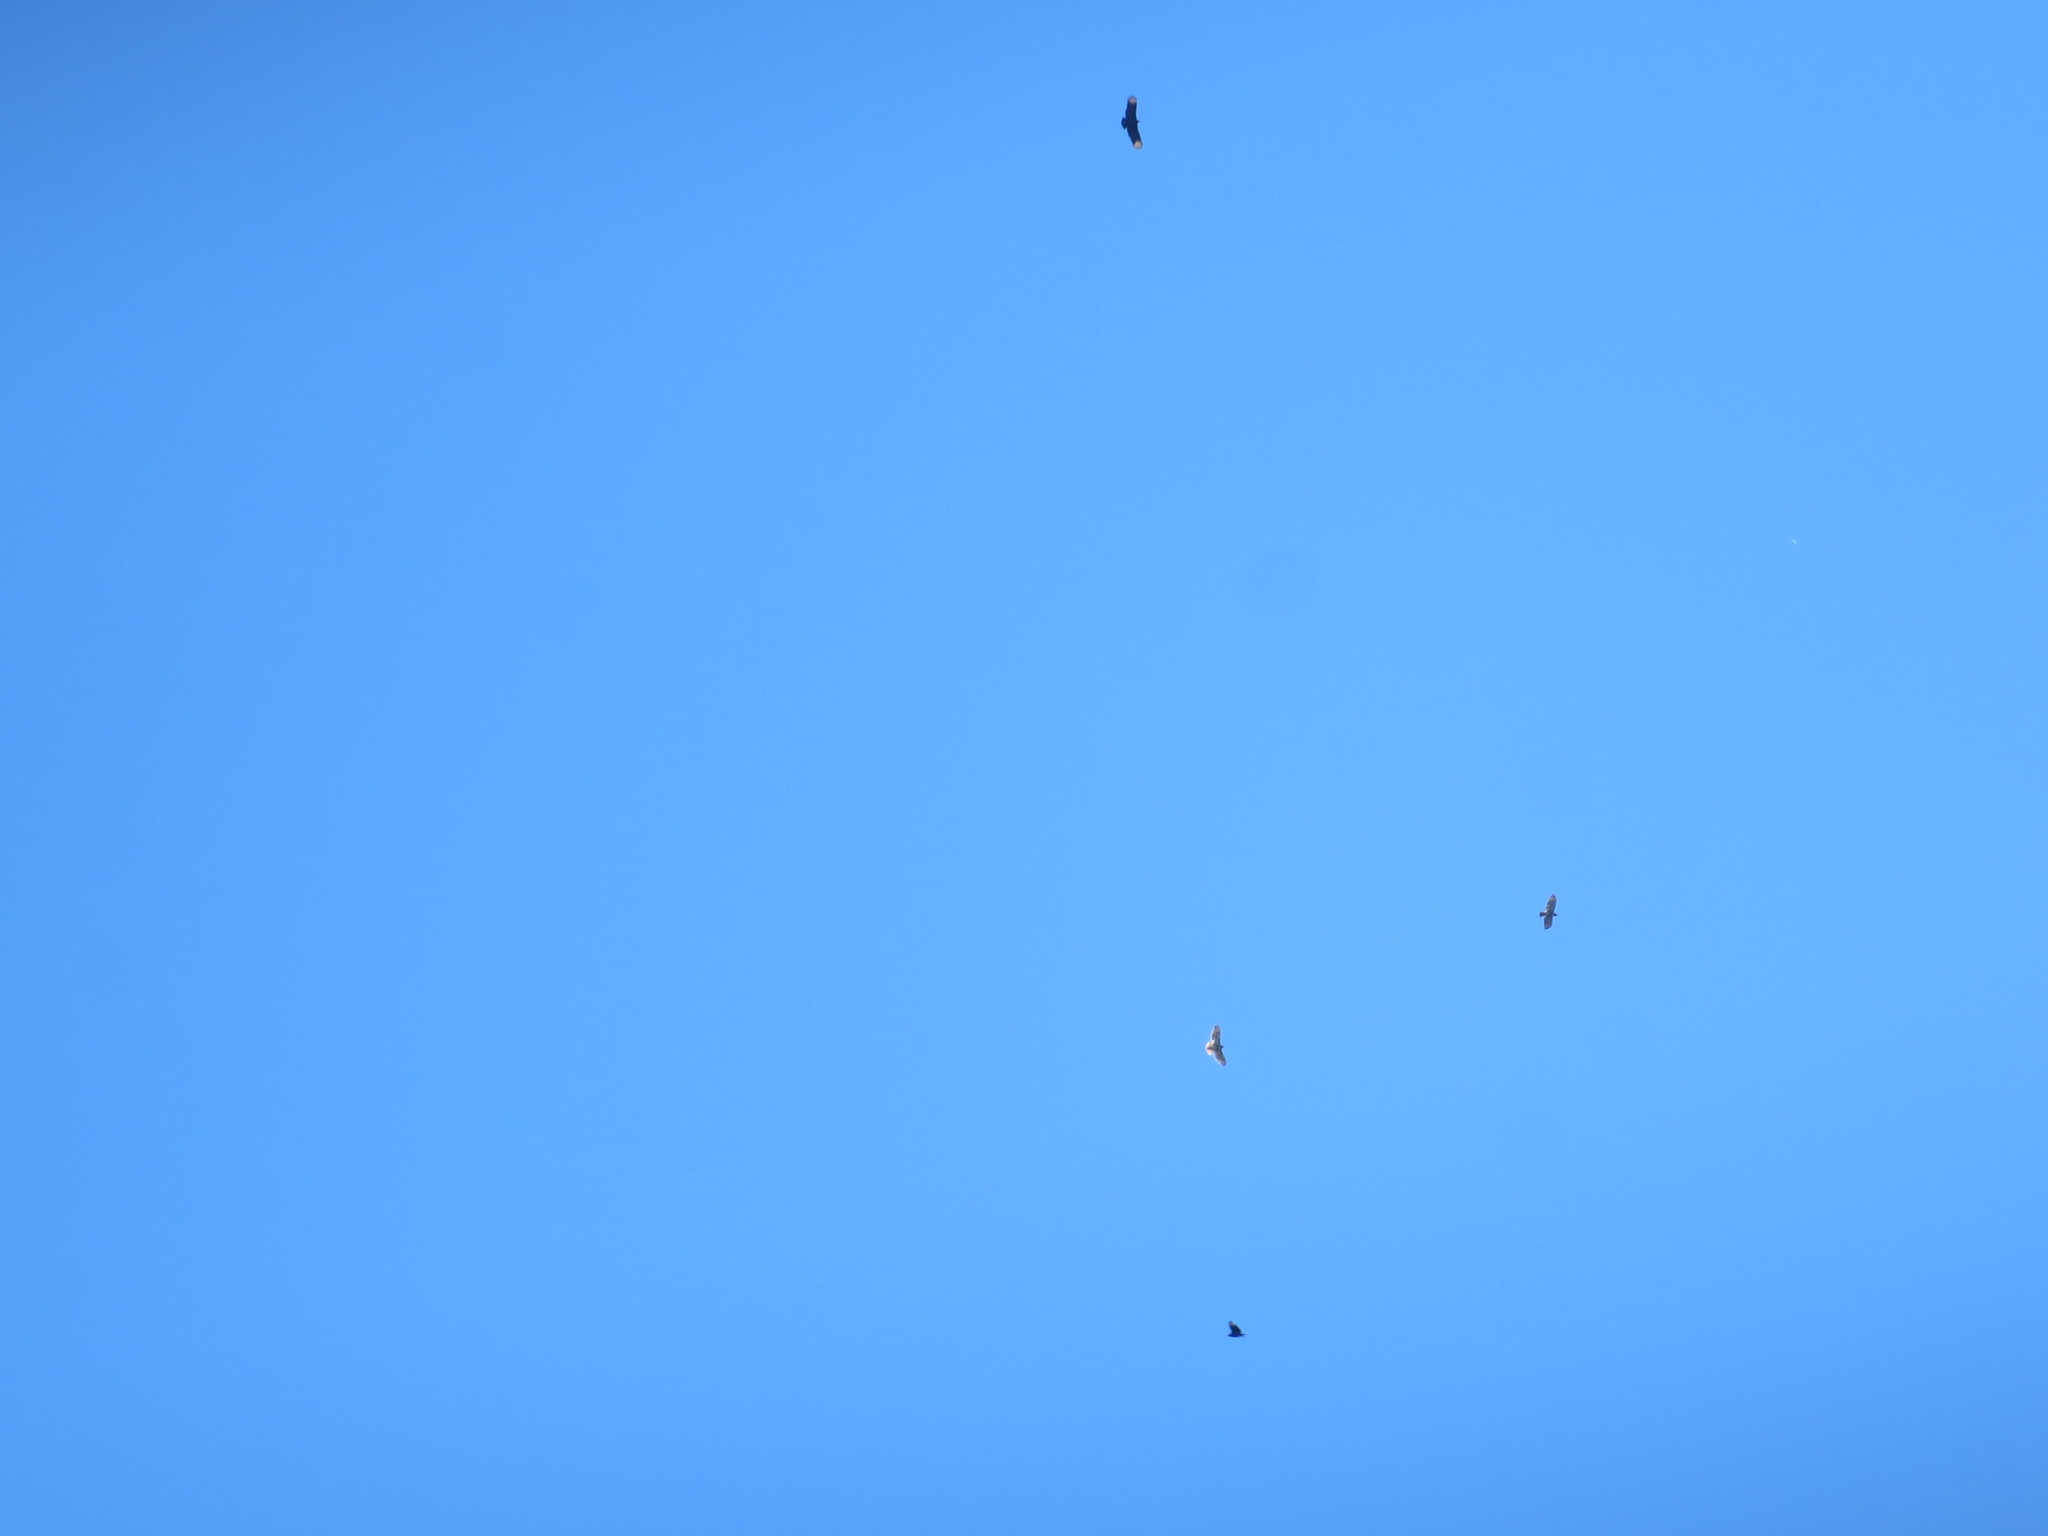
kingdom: Animalia
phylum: Chordata
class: Aves
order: Accipitriformes
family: Cathartidae
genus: Coragyps
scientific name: Coragyps atratus
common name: Black vulture
